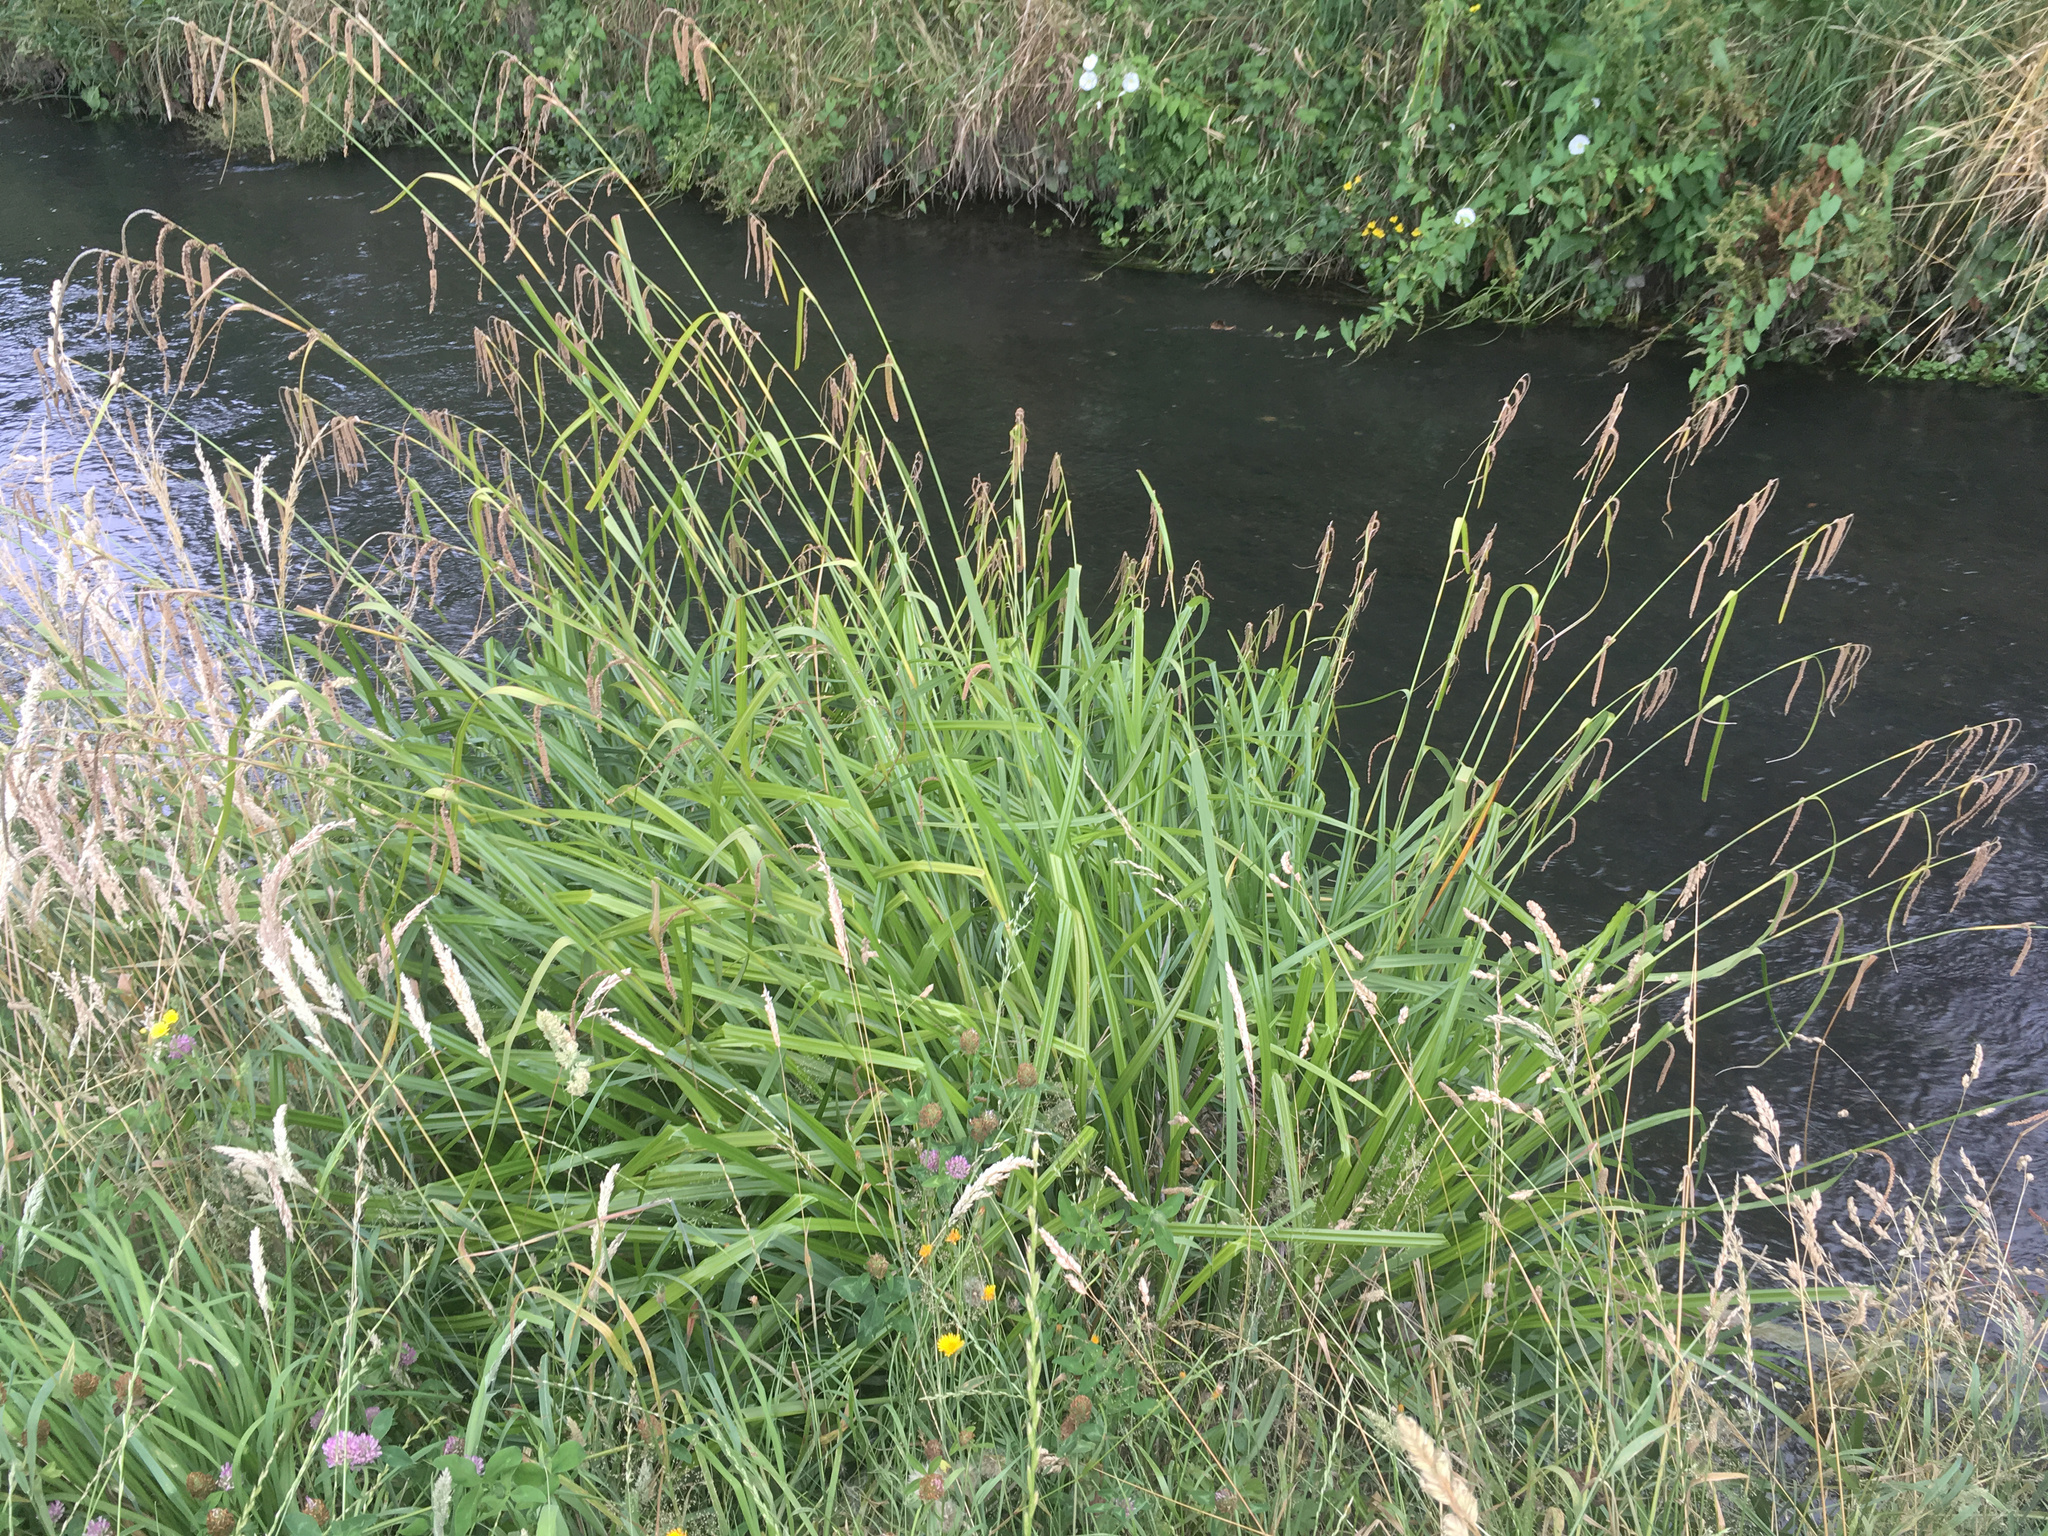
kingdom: Plantae
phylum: Tracheophyta
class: Liliopsida
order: Poales
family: Cyperaceae
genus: Carex
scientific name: Carex pendula
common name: Pendulous sedge
